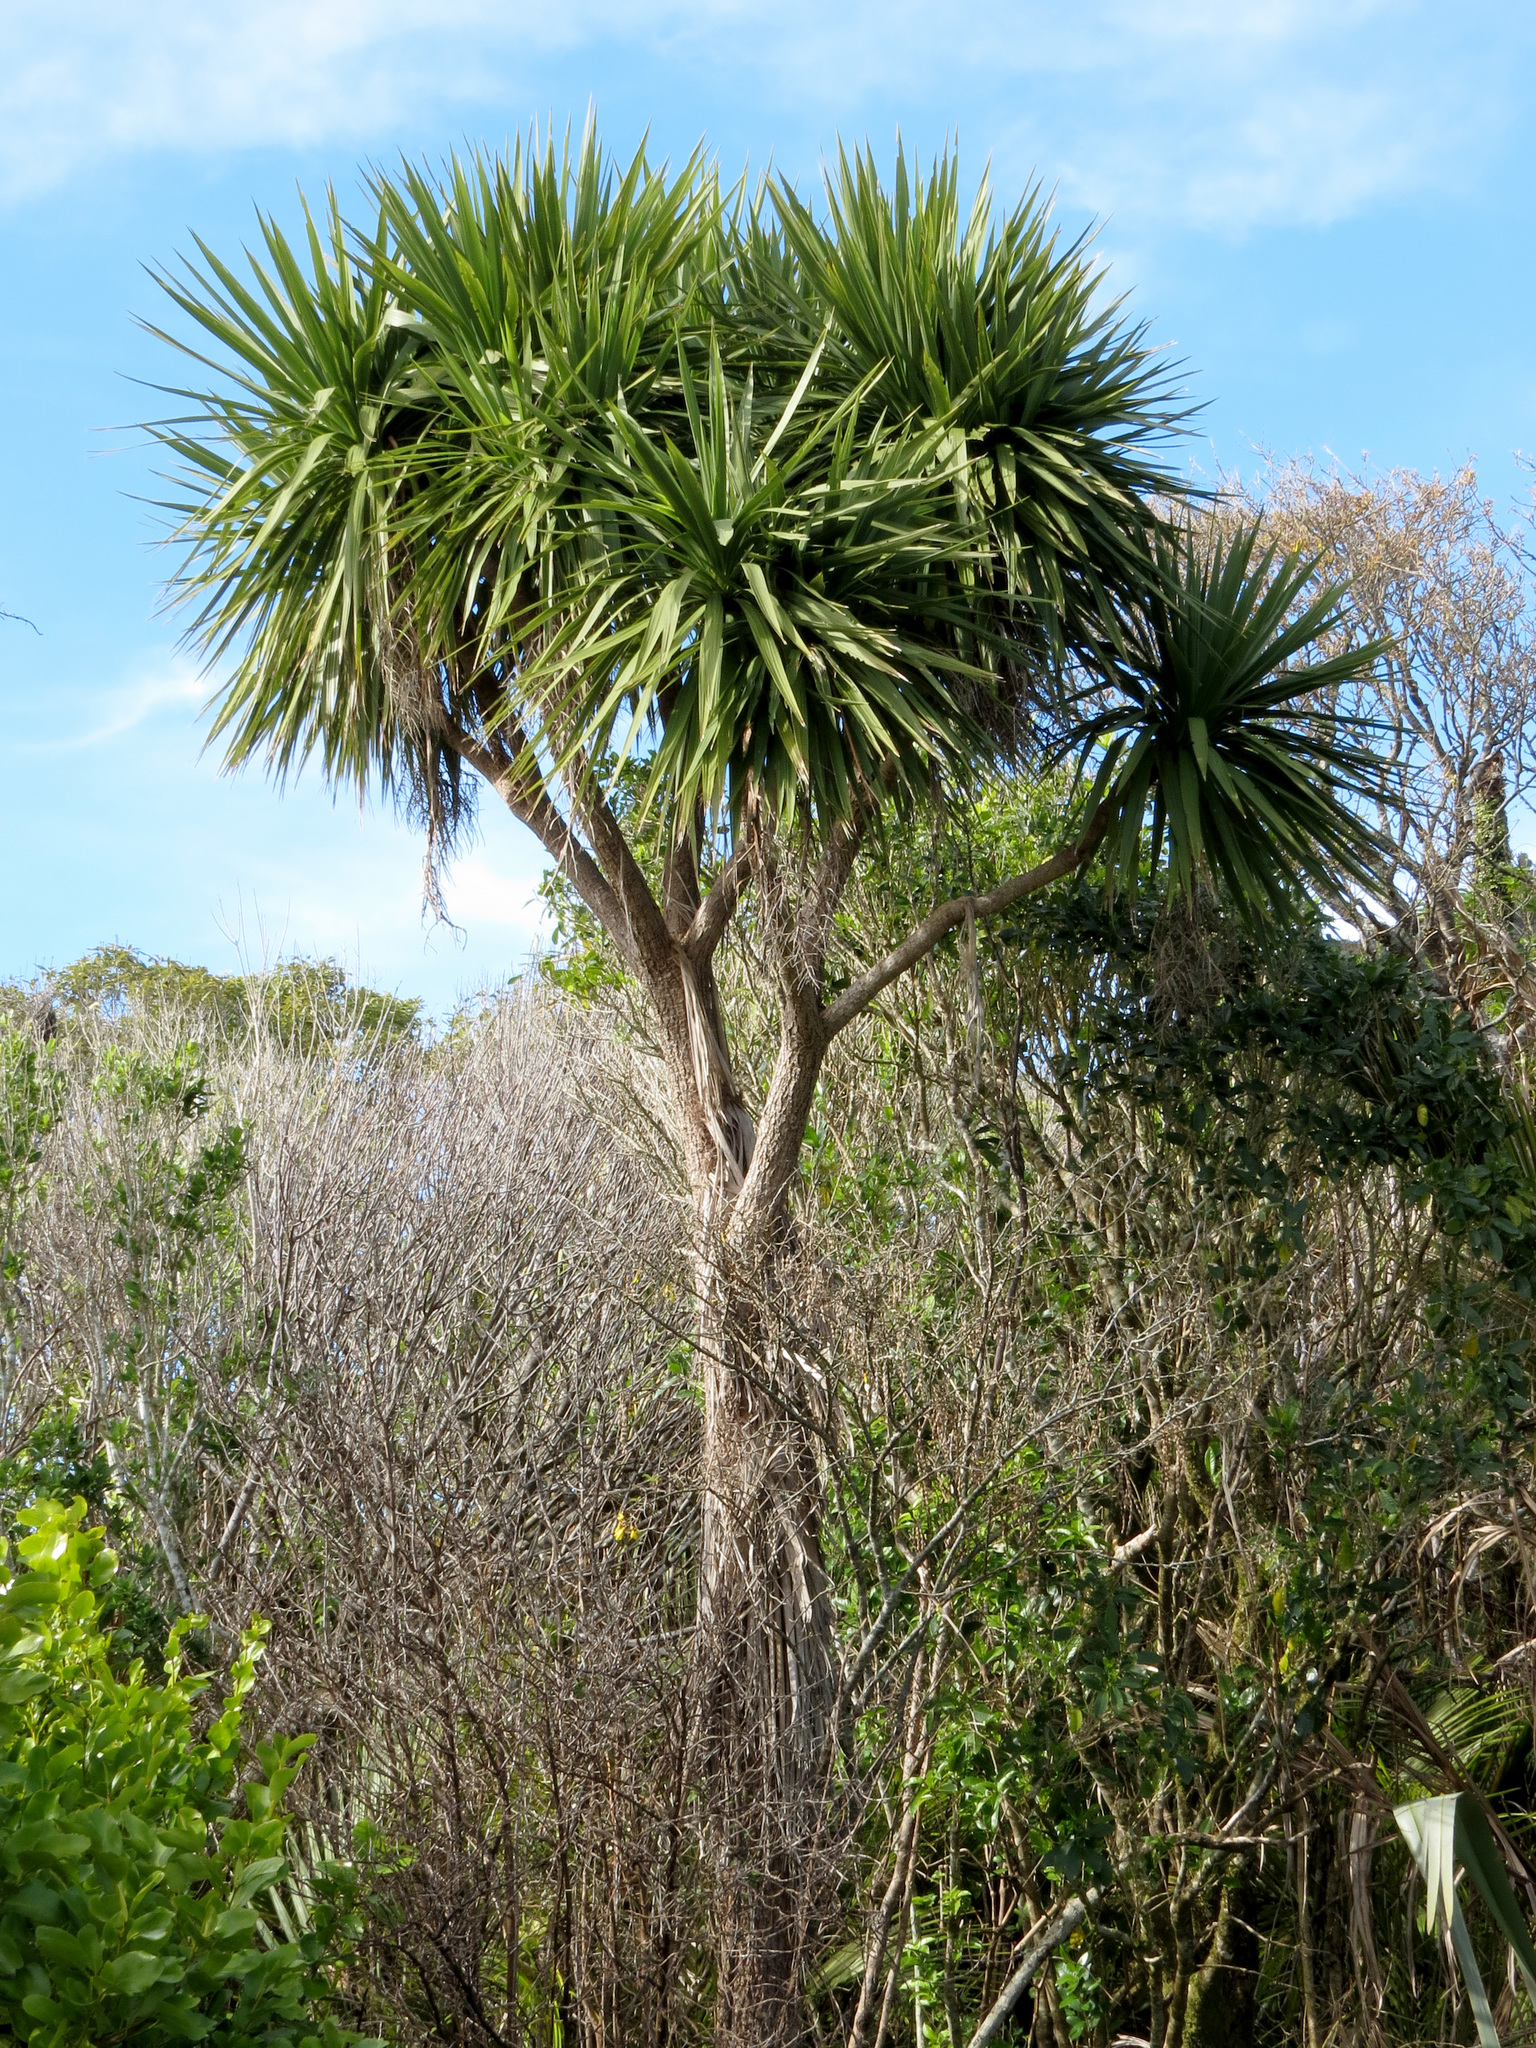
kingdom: Plantae
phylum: Tracheophyta
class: Liliopsida
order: Asparagales
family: Asparagaceae
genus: Cordyline
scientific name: Cordyline australis
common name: Cabbage-palm
